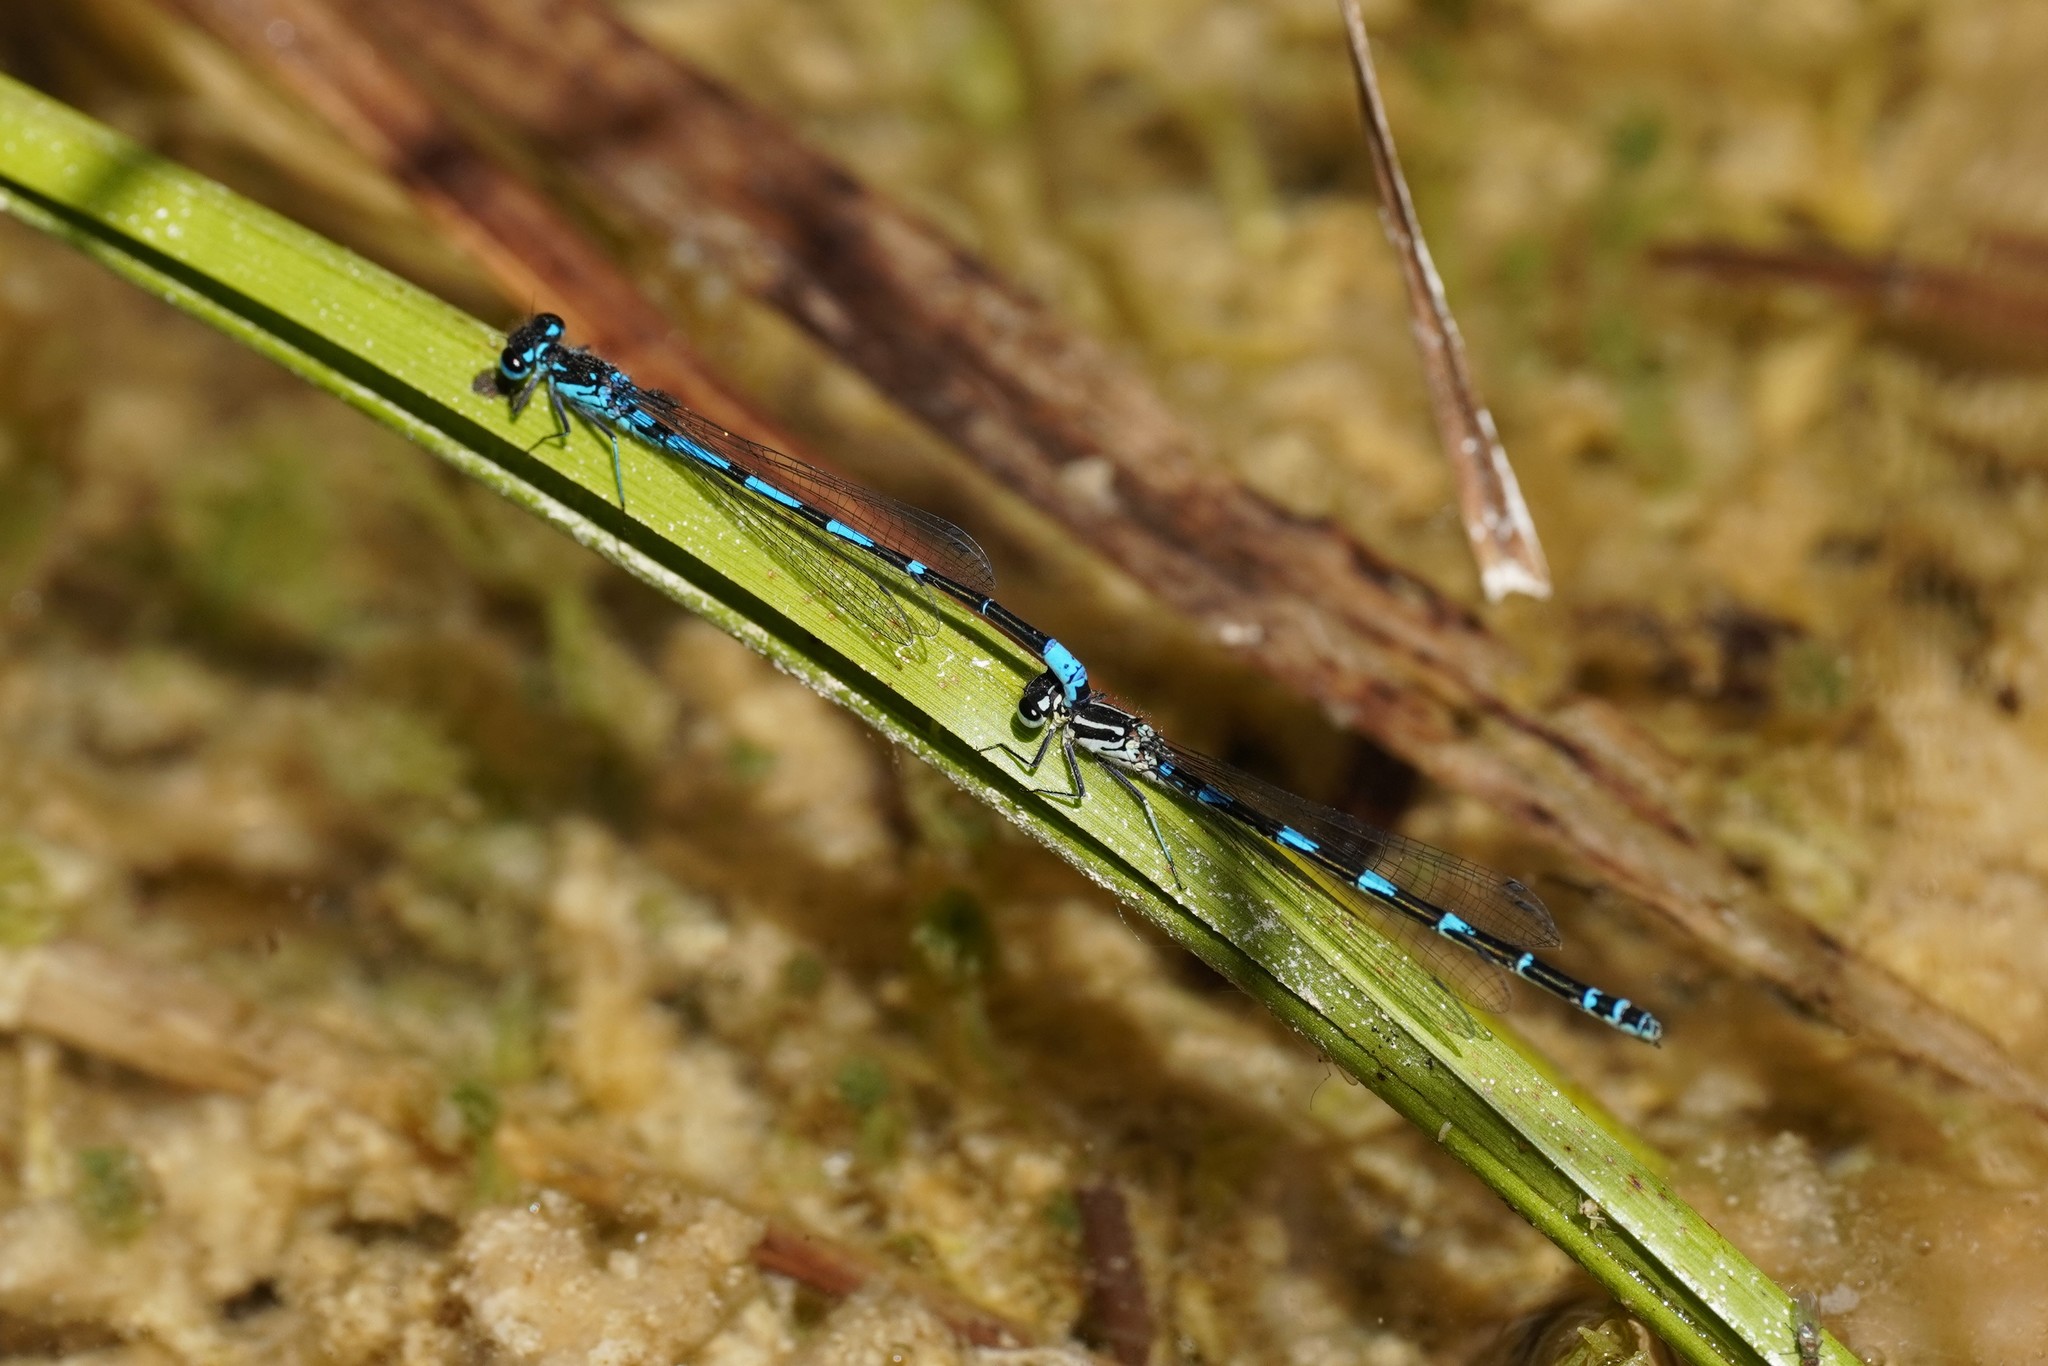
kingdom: Animalia
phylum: Arthropoda
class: Insecta
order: Odonata
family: Coenagrionidae
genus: Coenagrion
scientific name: Coenagrion pulchellum
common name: Variable bluet
